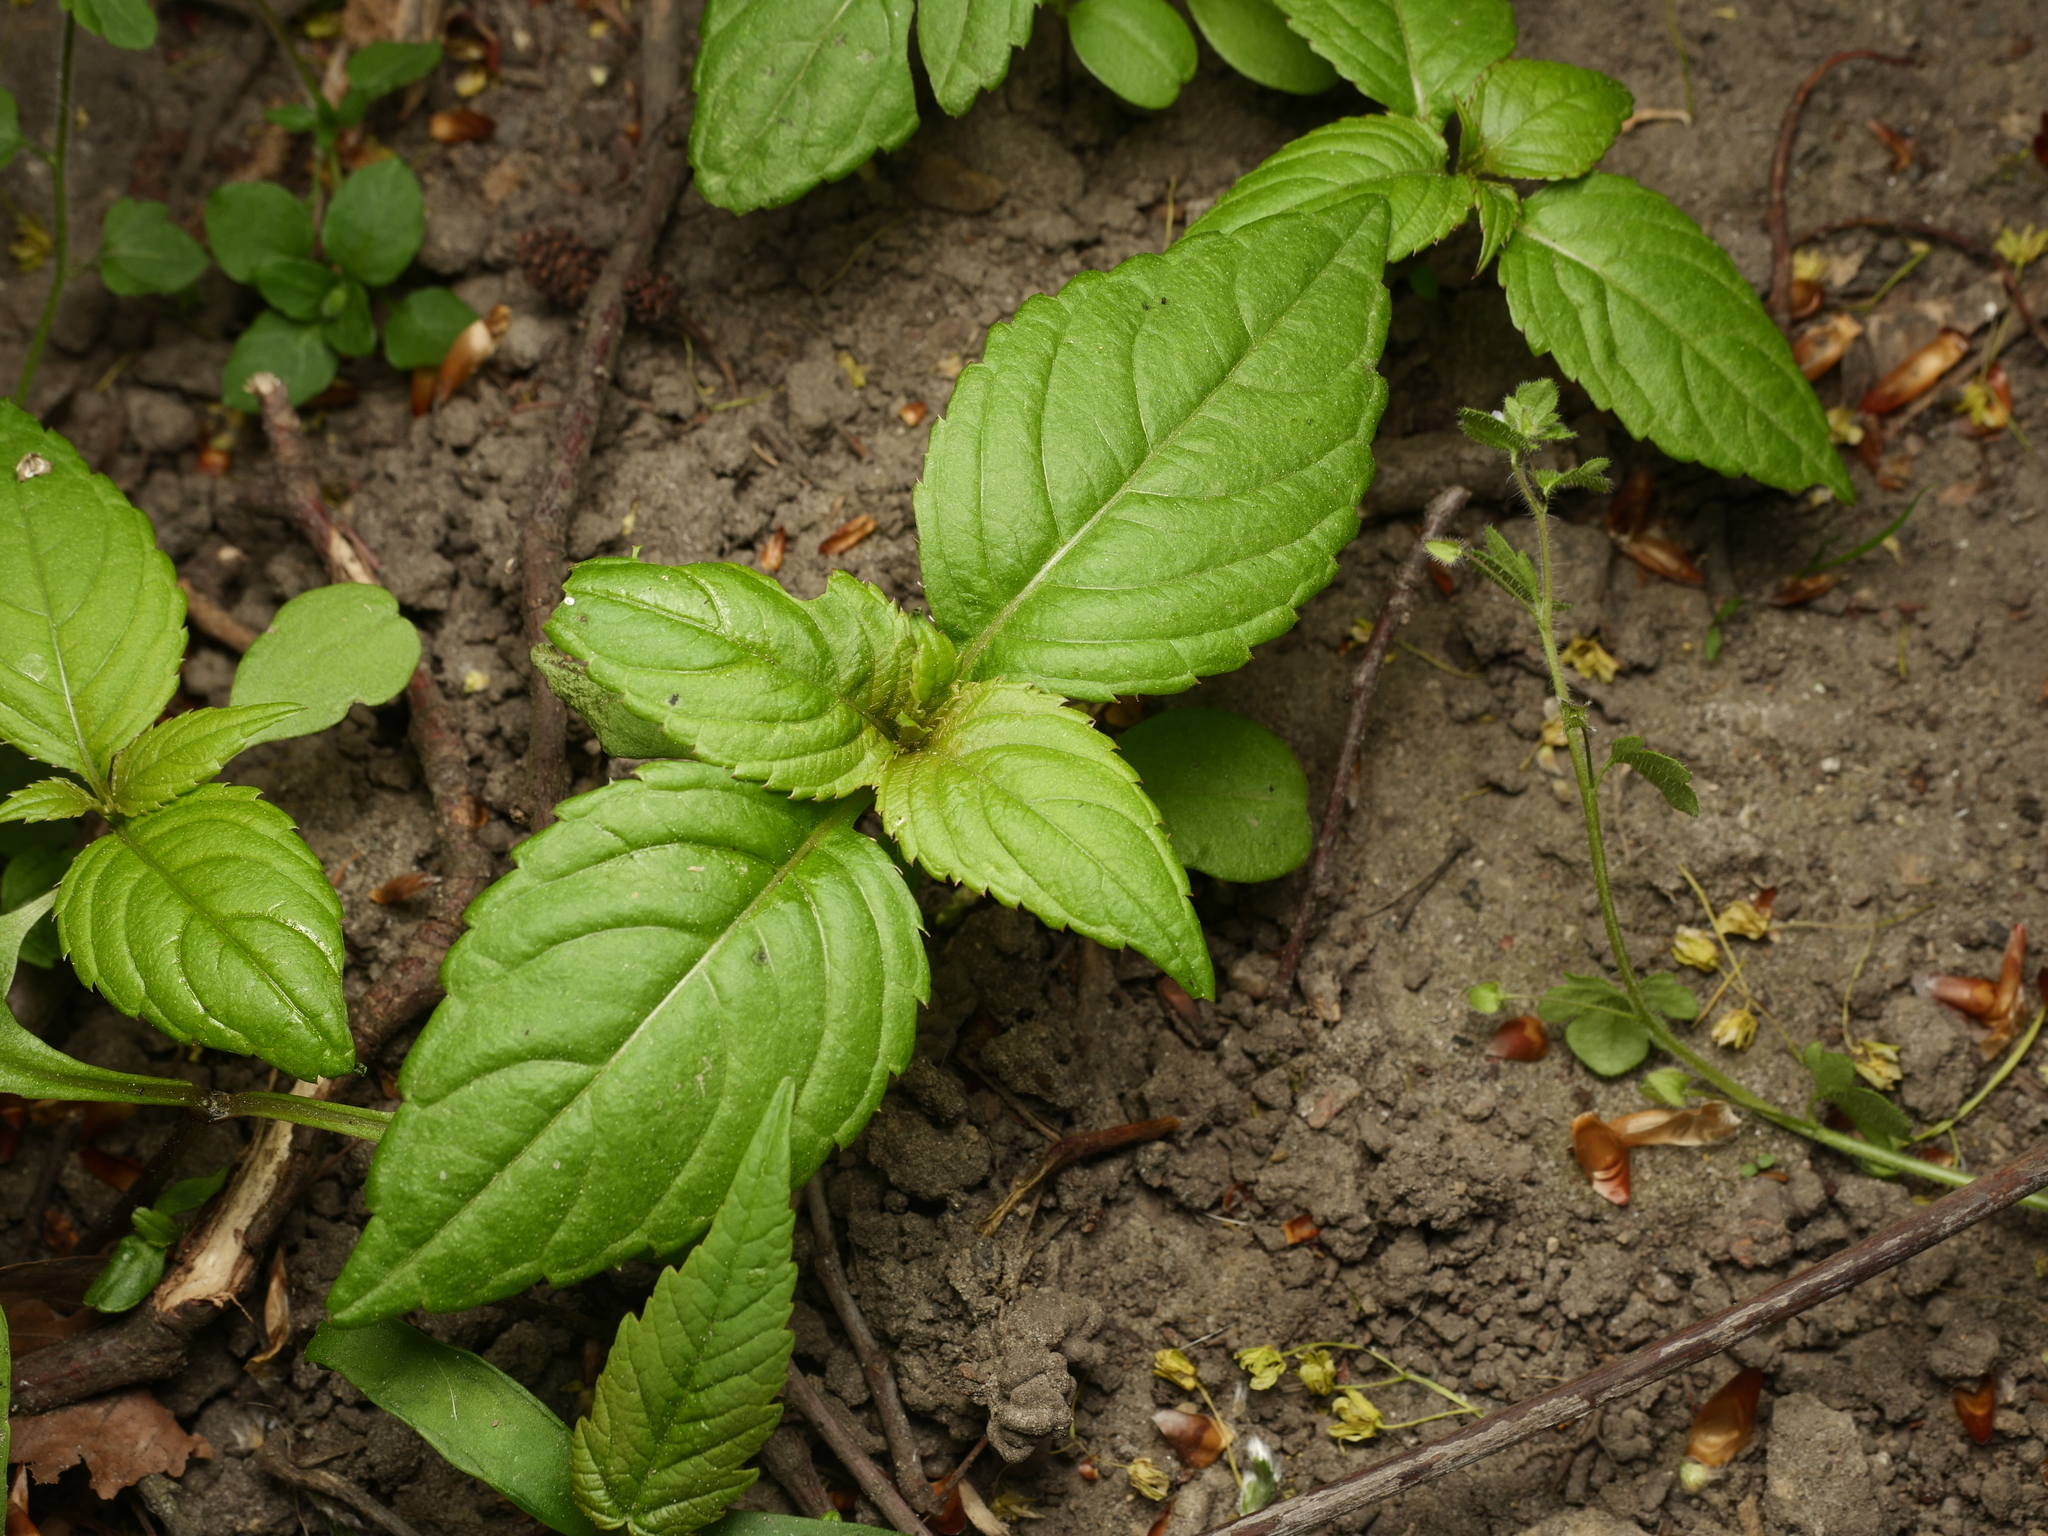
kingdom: Plantae
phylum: Tracheophyta
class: Magnoliopsida
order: Ericales
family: Balsaminaceae
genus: Impatiens
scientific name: Impatiens parviflora
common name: Small balsam
